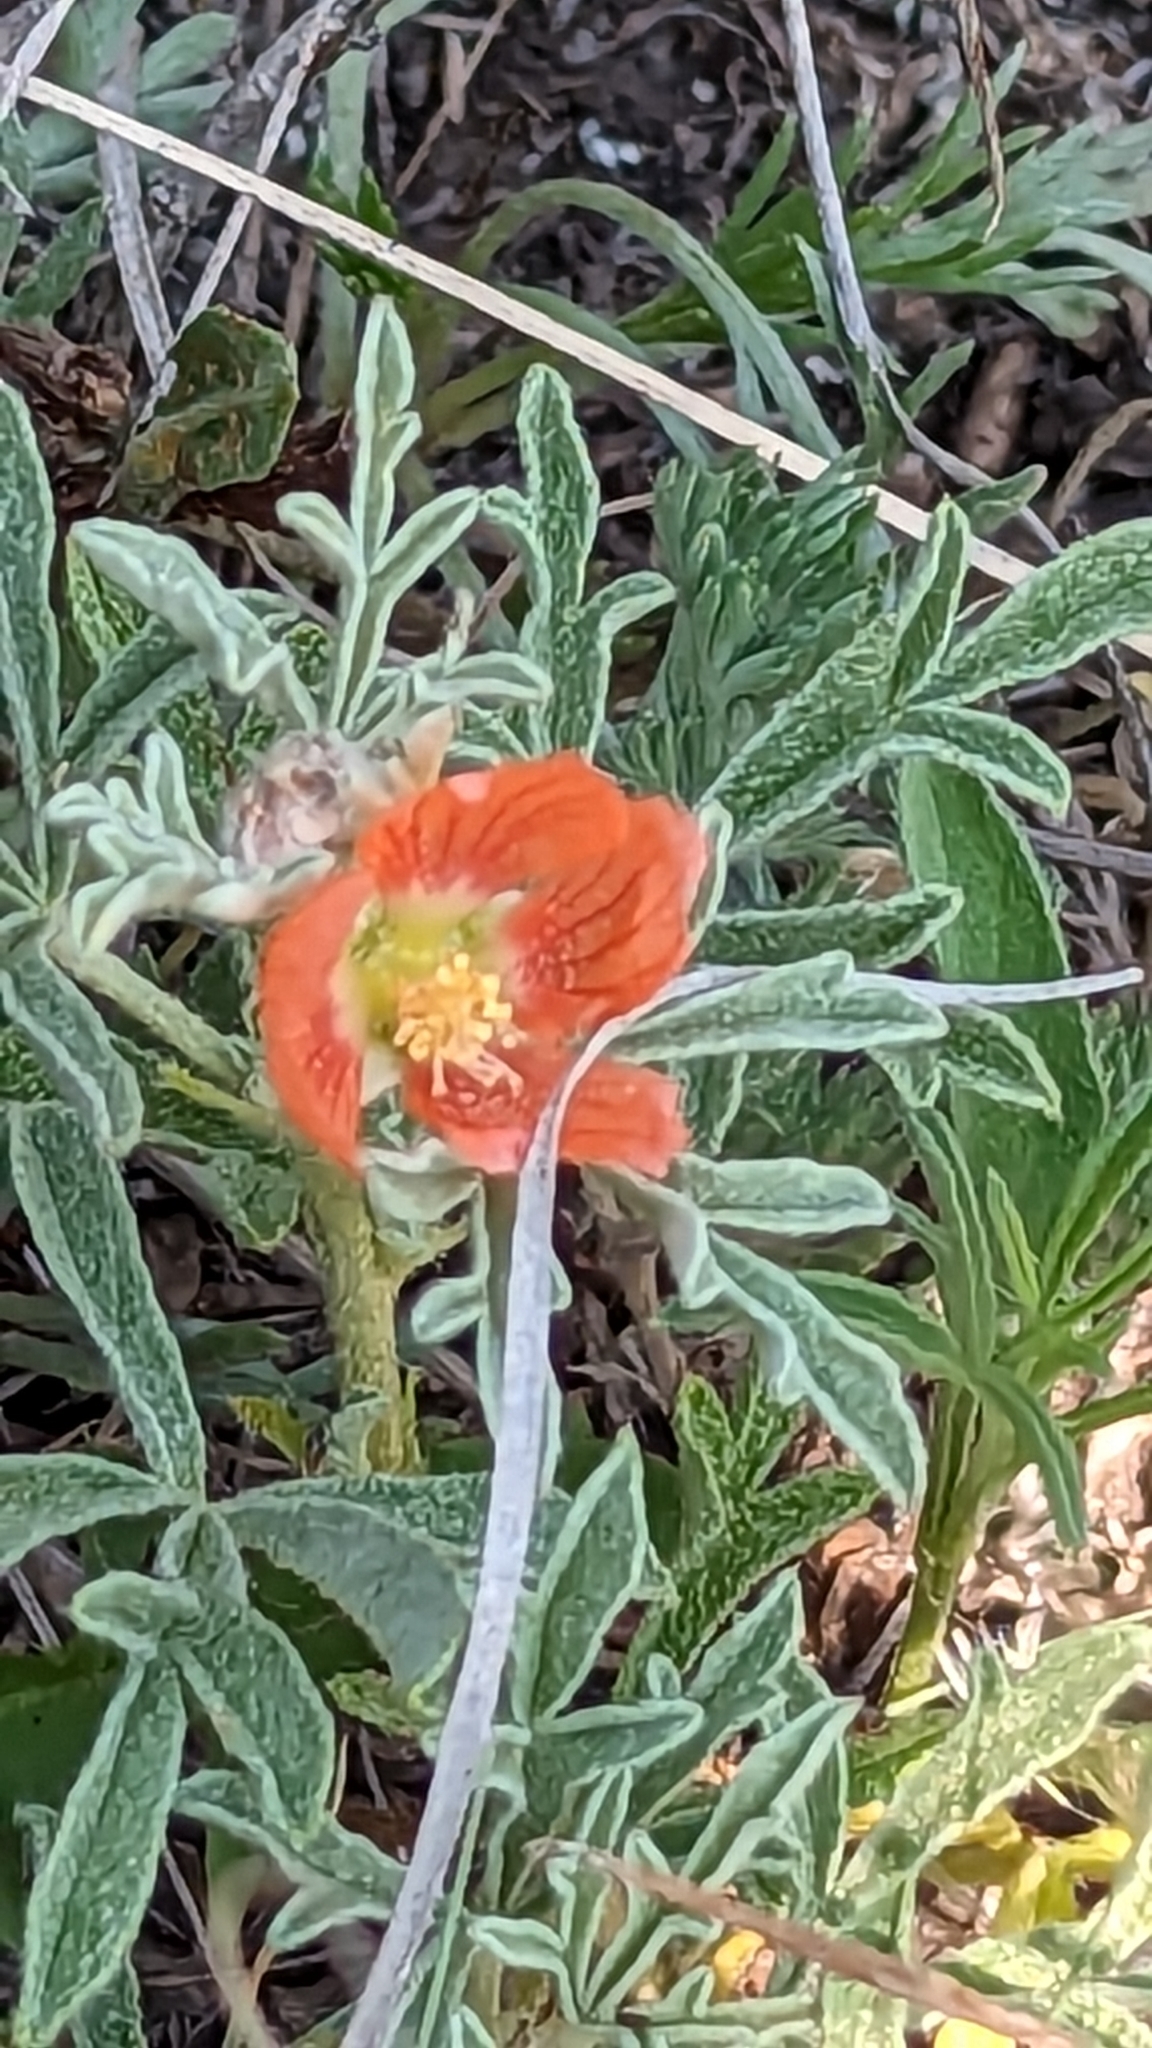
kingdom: Plantae
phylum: Tracheophyta
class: Magnoliopsida
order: Malvales
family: Malvaceae
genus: Sphaeralcea
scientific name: Sphaeralcea coccinea
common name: Moss-rose
